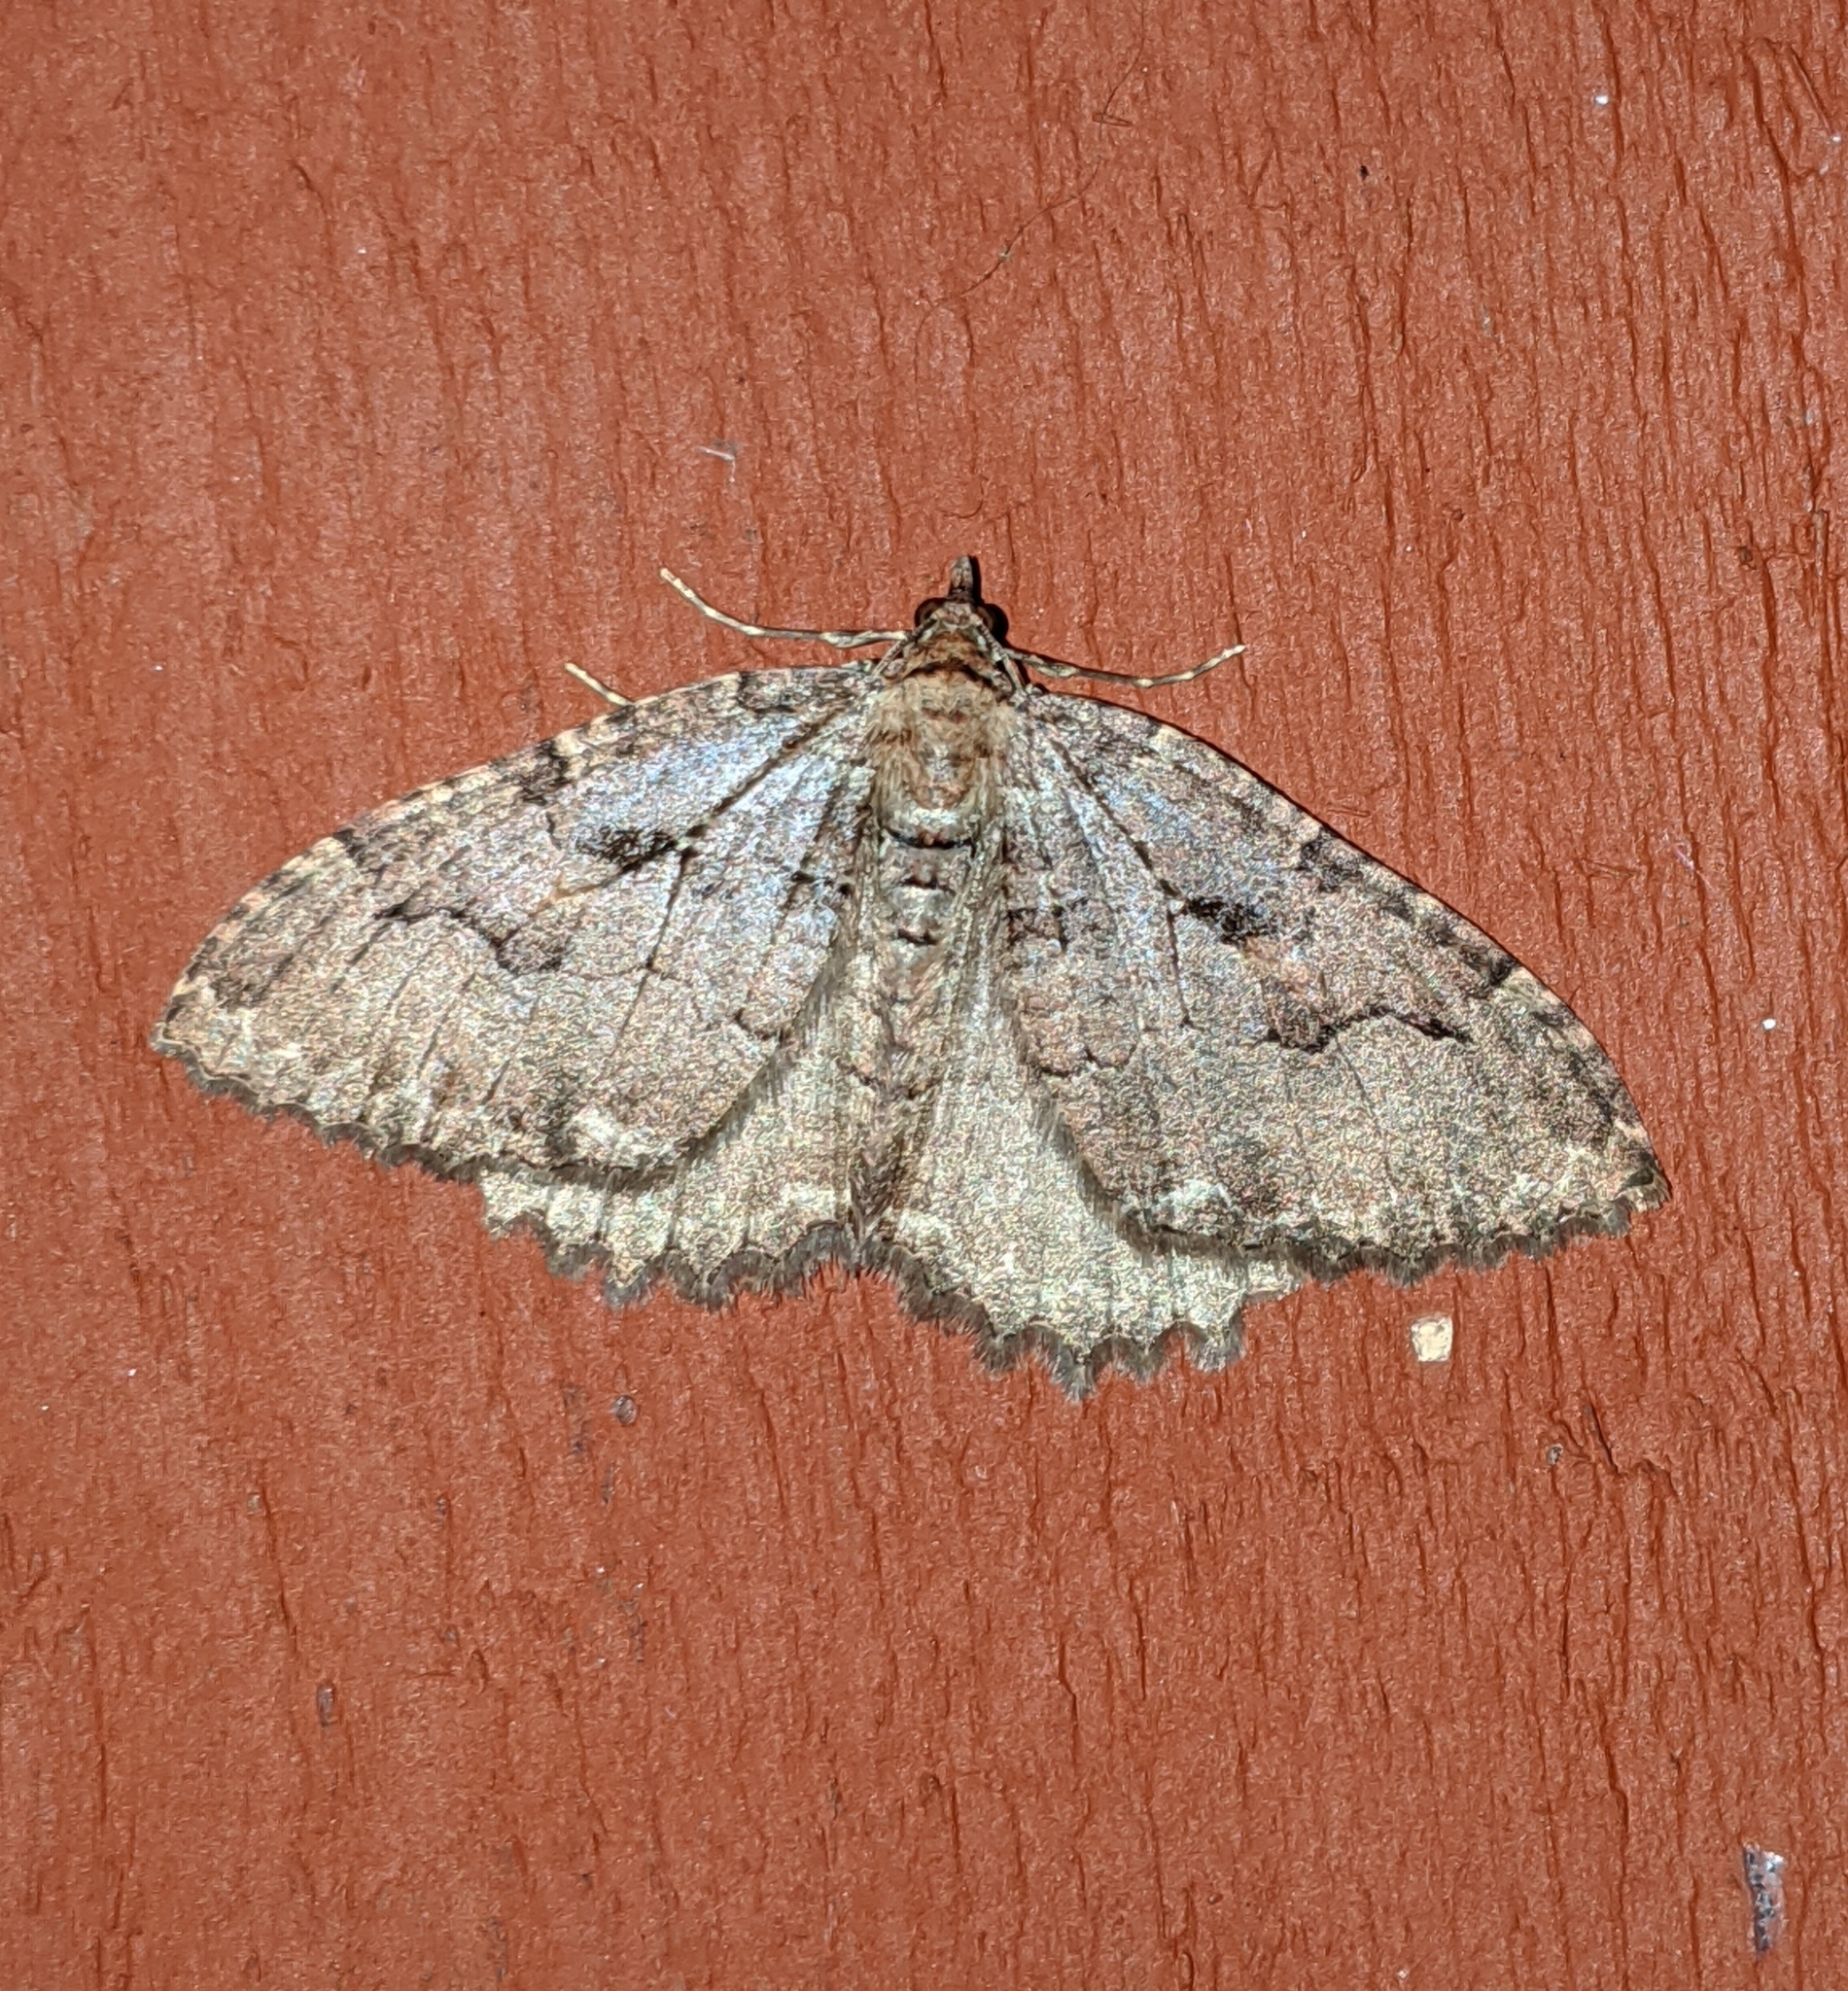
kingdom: Animalia
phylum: Arthropoda
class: Insecta
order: Lepidoptera
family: Geometridae
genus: Triphosa
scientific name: Triphosa haesitata
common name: Tissue moth
